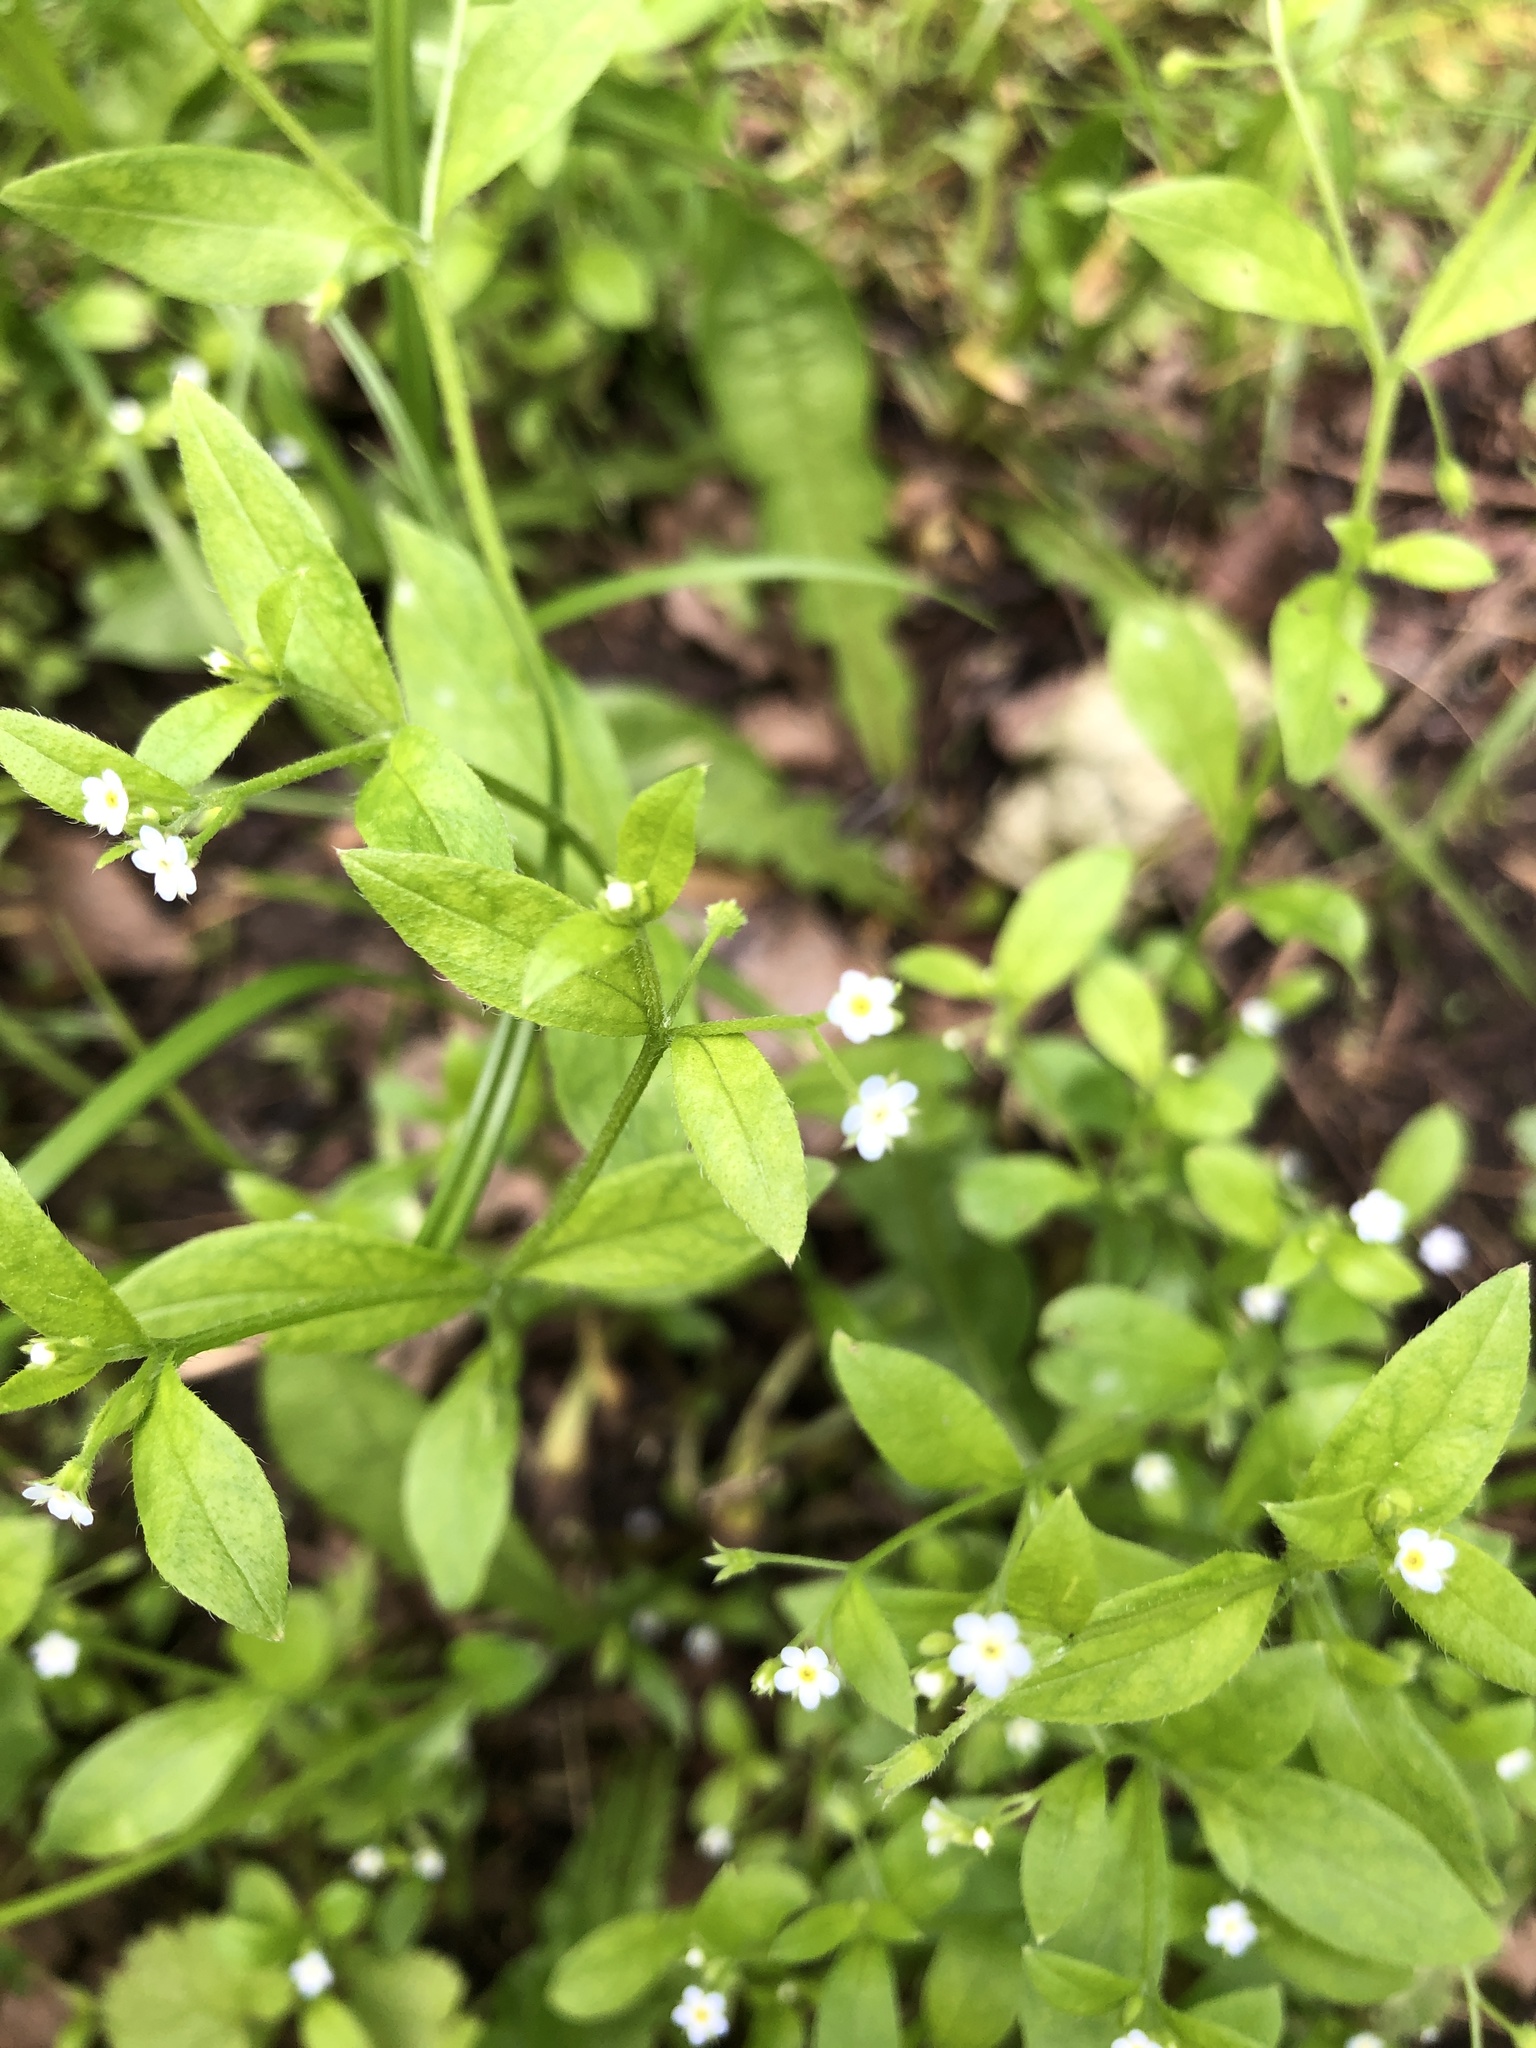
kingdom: Plantae
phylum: Tracheophyta
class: Magnoliopsida
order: Boraginales
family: Boraginaceae
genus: Myosotis
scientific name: Myosotis sparsiflora
